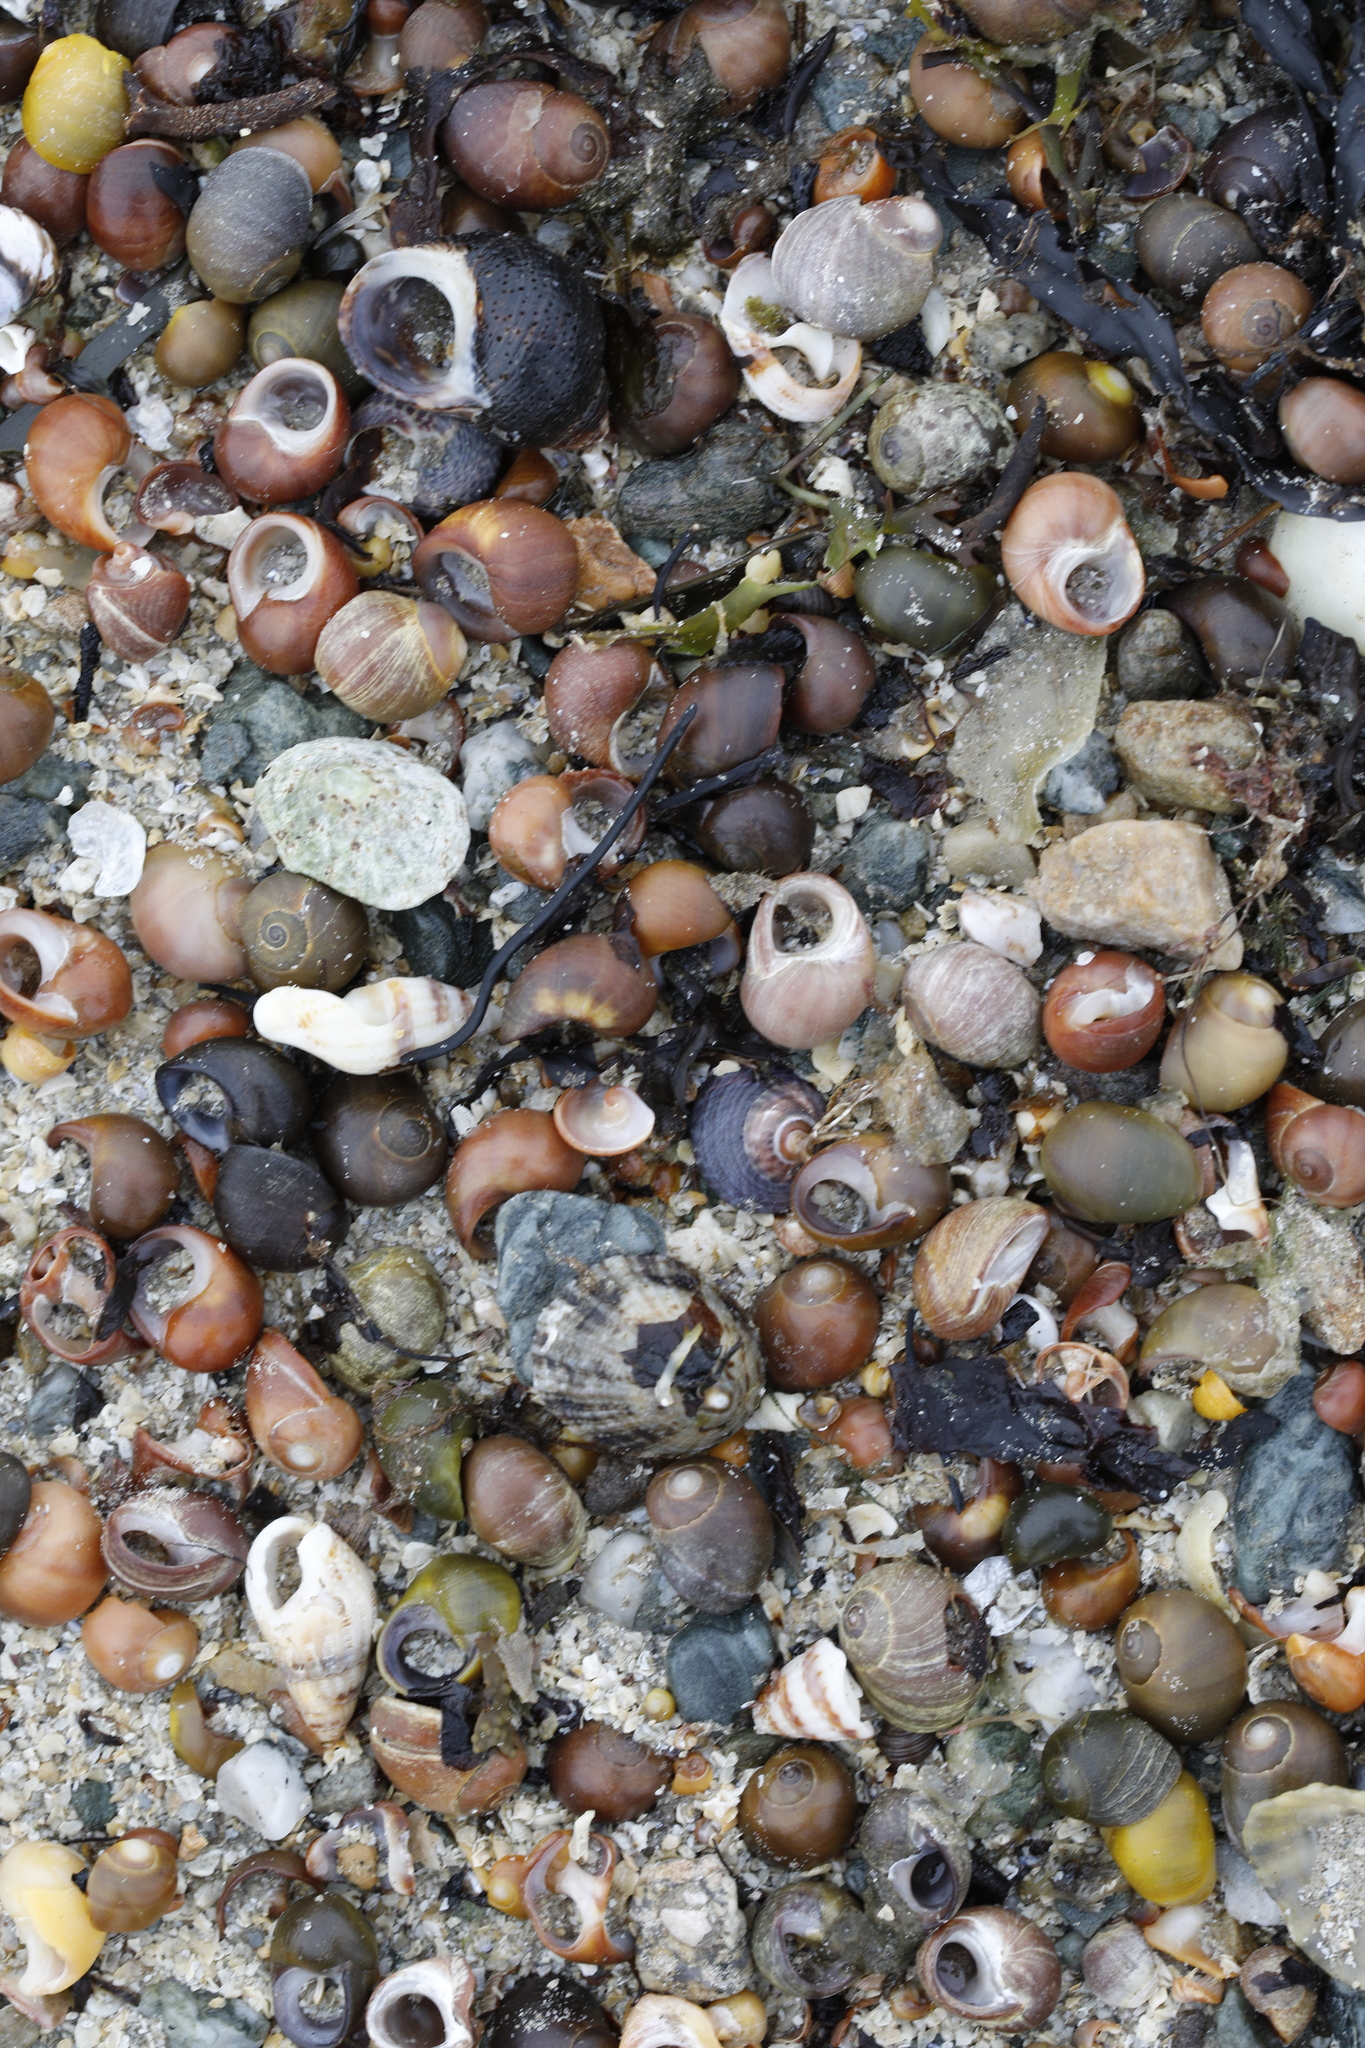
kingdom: Animalia
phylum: Mollusca
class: Gastropoda
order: Littorinimorpha
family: Littorinidae
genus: Littorina
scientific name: Littorina obtusata
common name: Flat periwinkle
